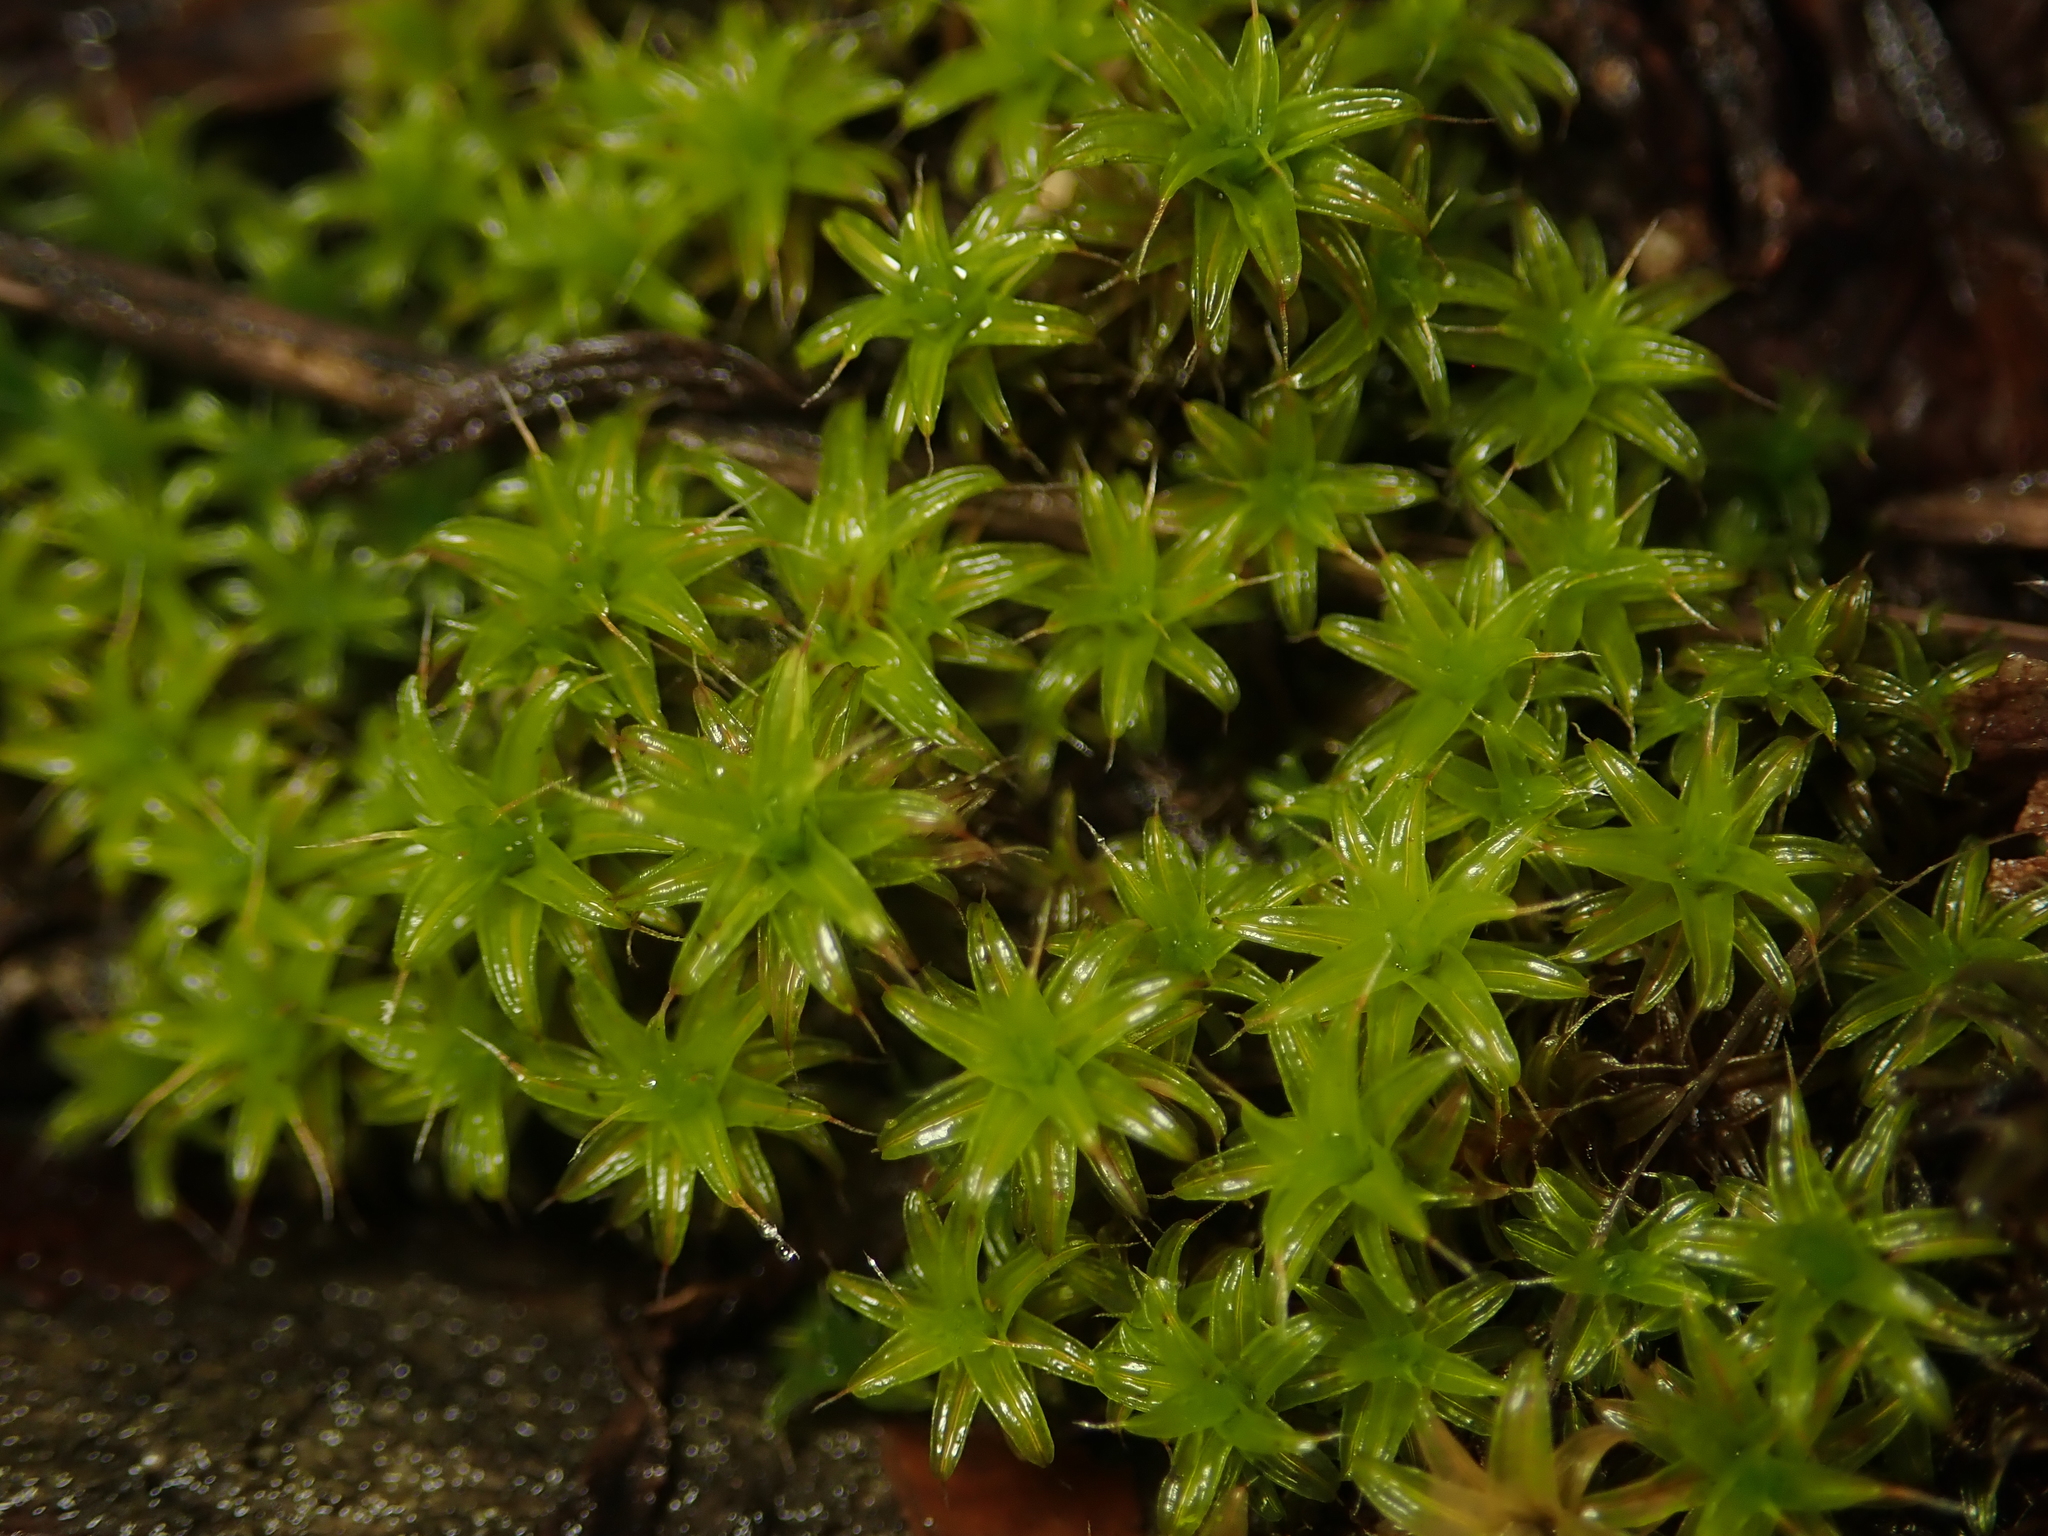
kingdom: Plantae
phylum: Bryophyta
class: Bryopsida
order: Pottiales
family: Pottiaceae
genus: Syntrichia
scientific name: Syntrichia ruralis
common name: Sidewalk screw moss
